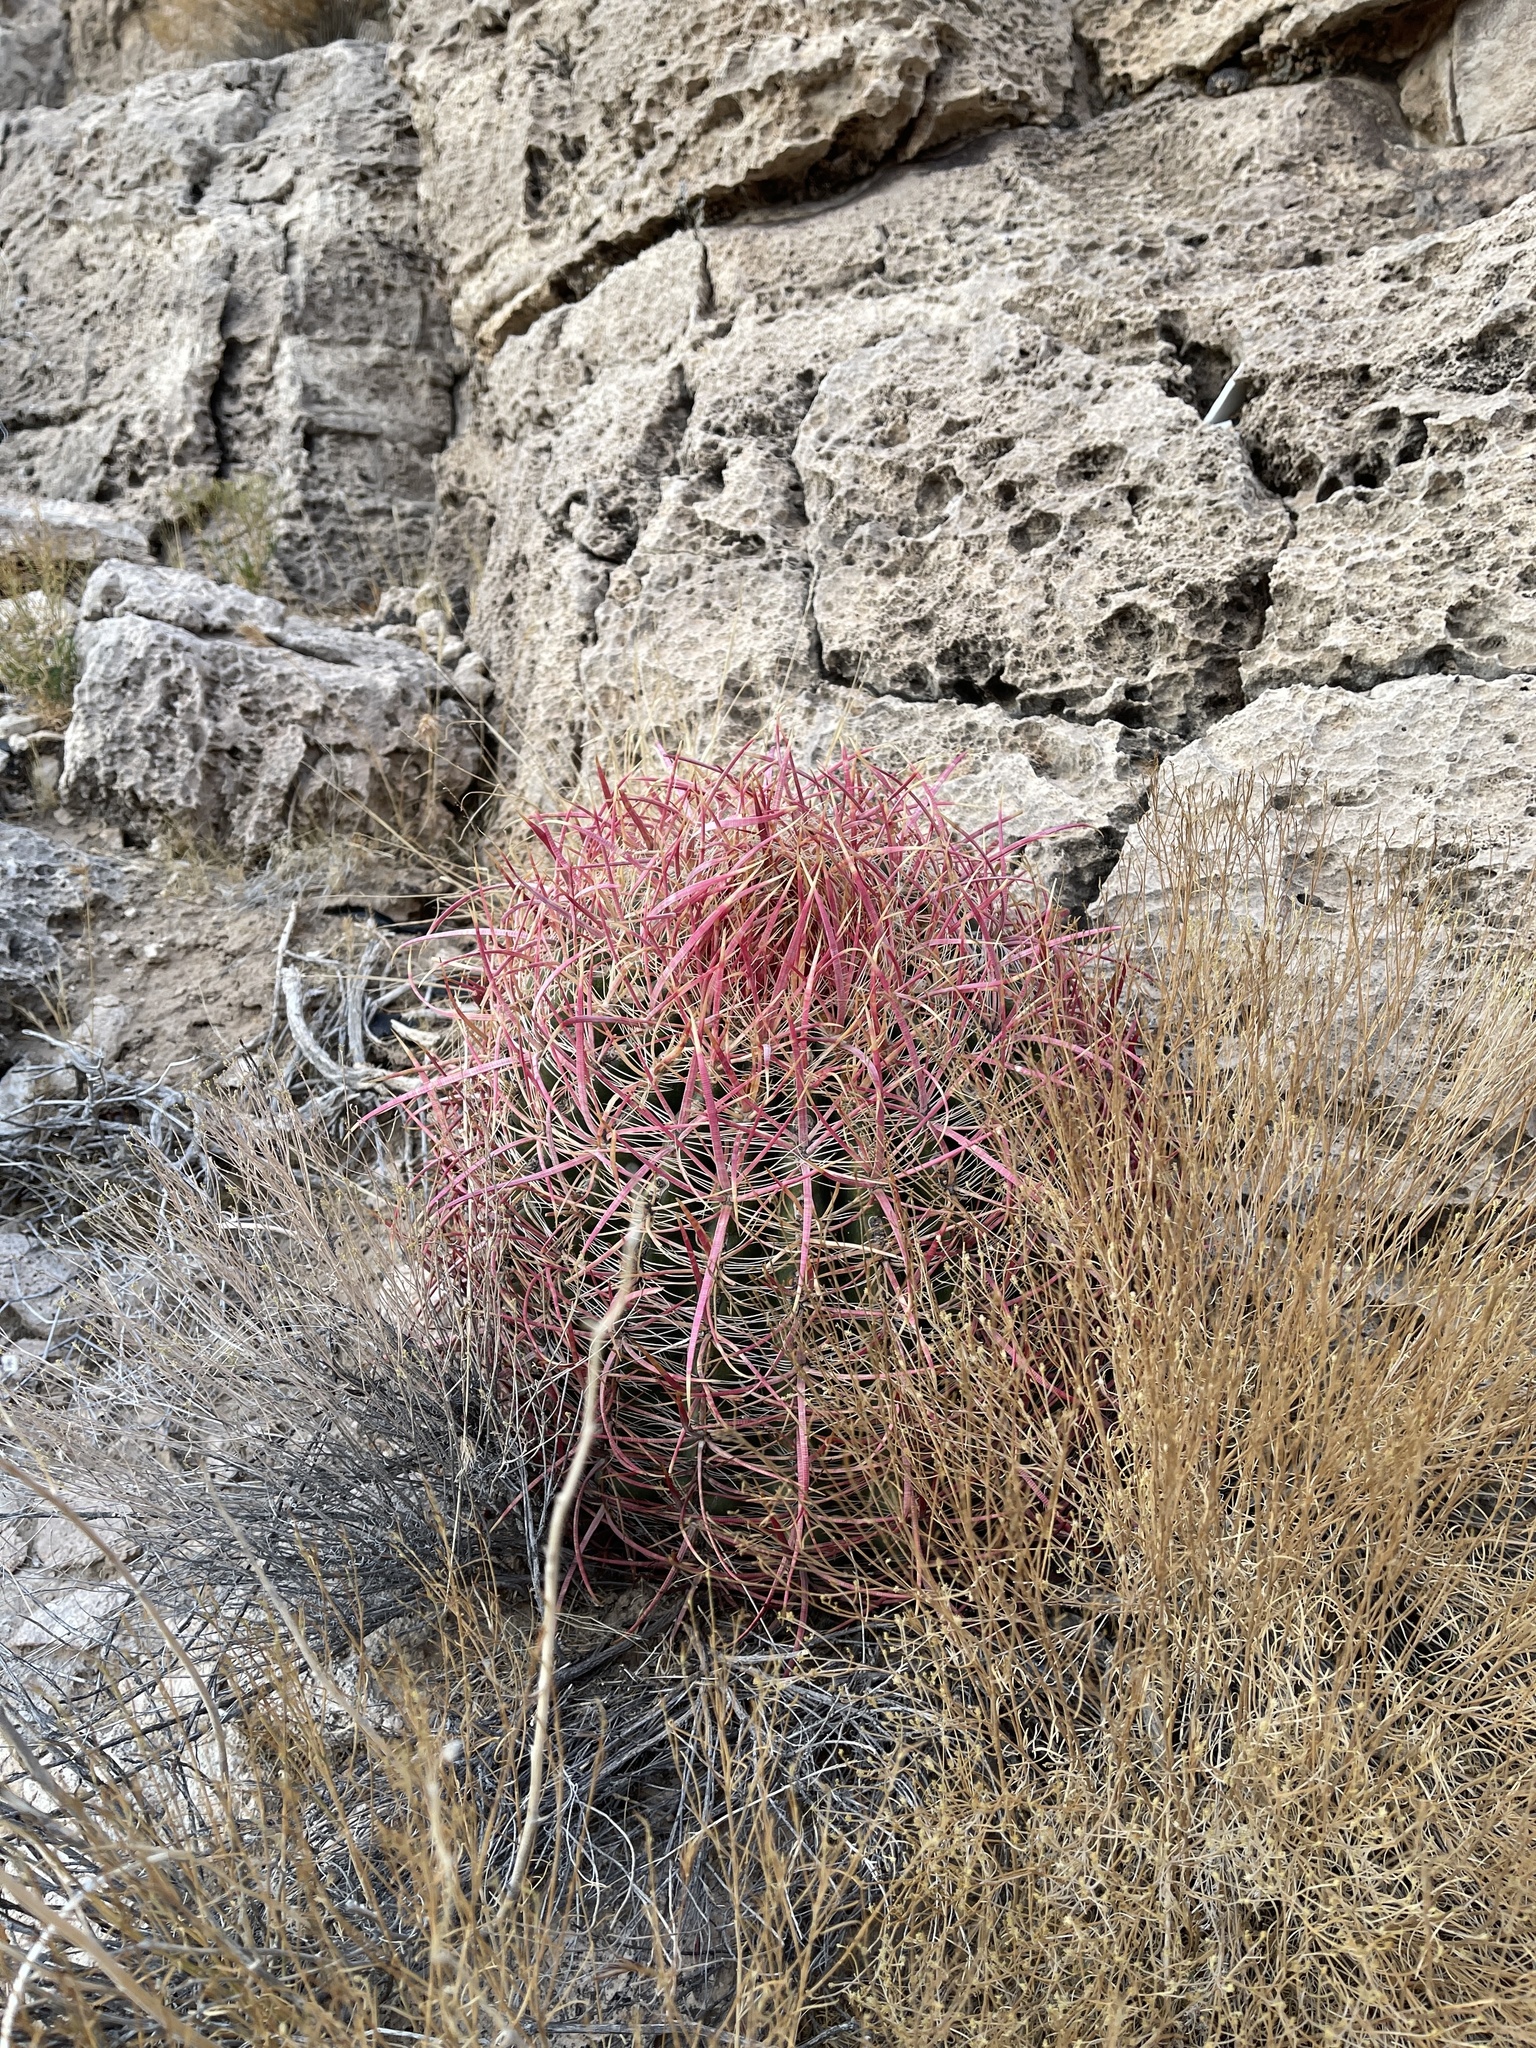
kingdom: Plantae
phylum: Tracheophyta
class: Magnoliopsida
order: Caryophyllales
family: Cactaceae
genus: Ferocactus
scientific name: Ferocactus cylindraceus
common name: California barrel cactus
